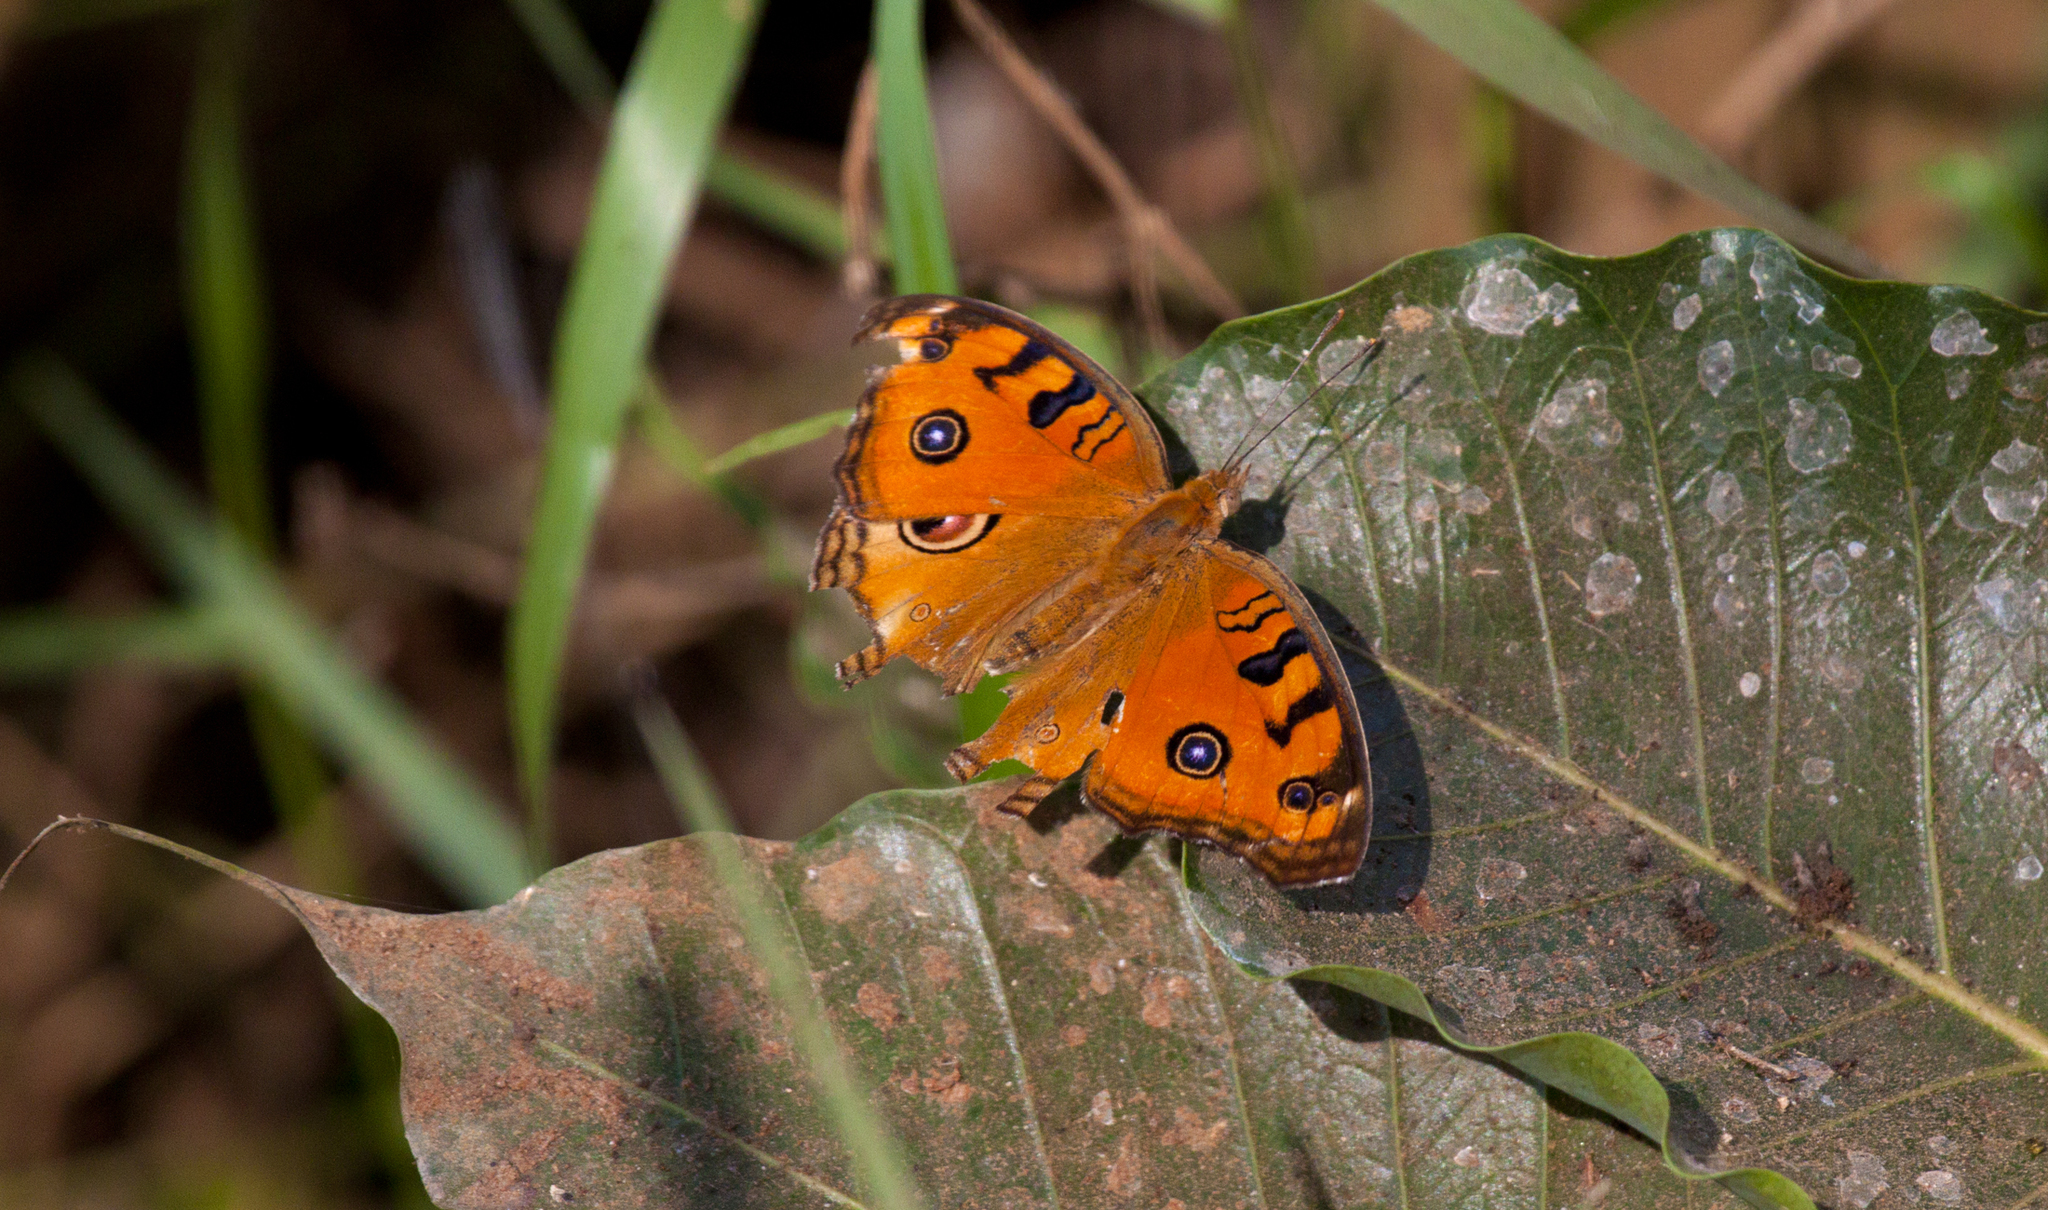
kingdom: Animalia
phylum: Arthropoda
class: Insecta
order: Lepidoptera
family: Nymphalidae
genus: Junonia
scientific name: Junonia almana
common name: Peacock pansy
